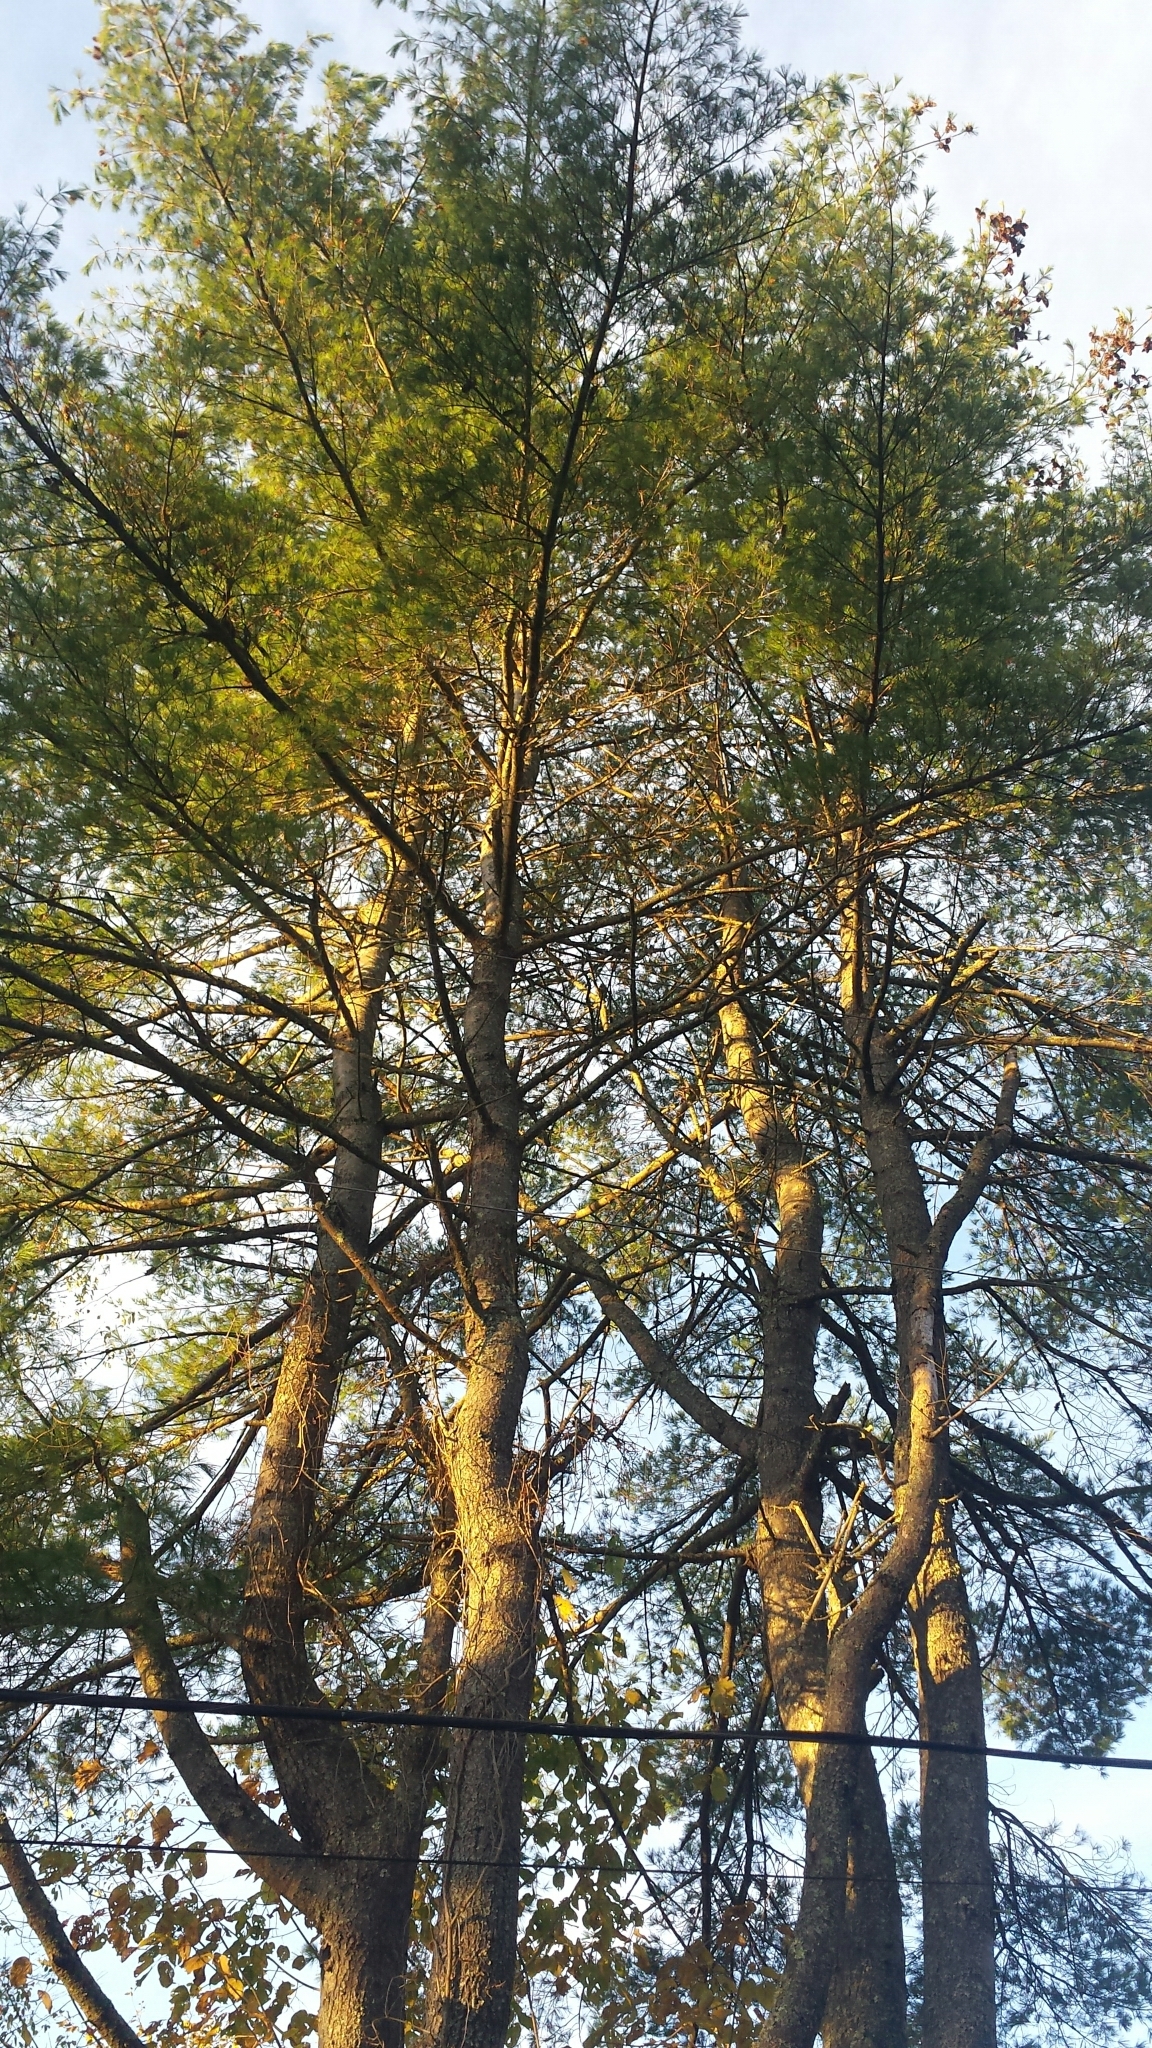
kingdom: Plantae
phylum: Tracheophyta
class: Pinopsida
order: Pinales
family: Pinaceae
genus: Pinus
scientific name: Pinus strobus
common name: Weymouth pine
